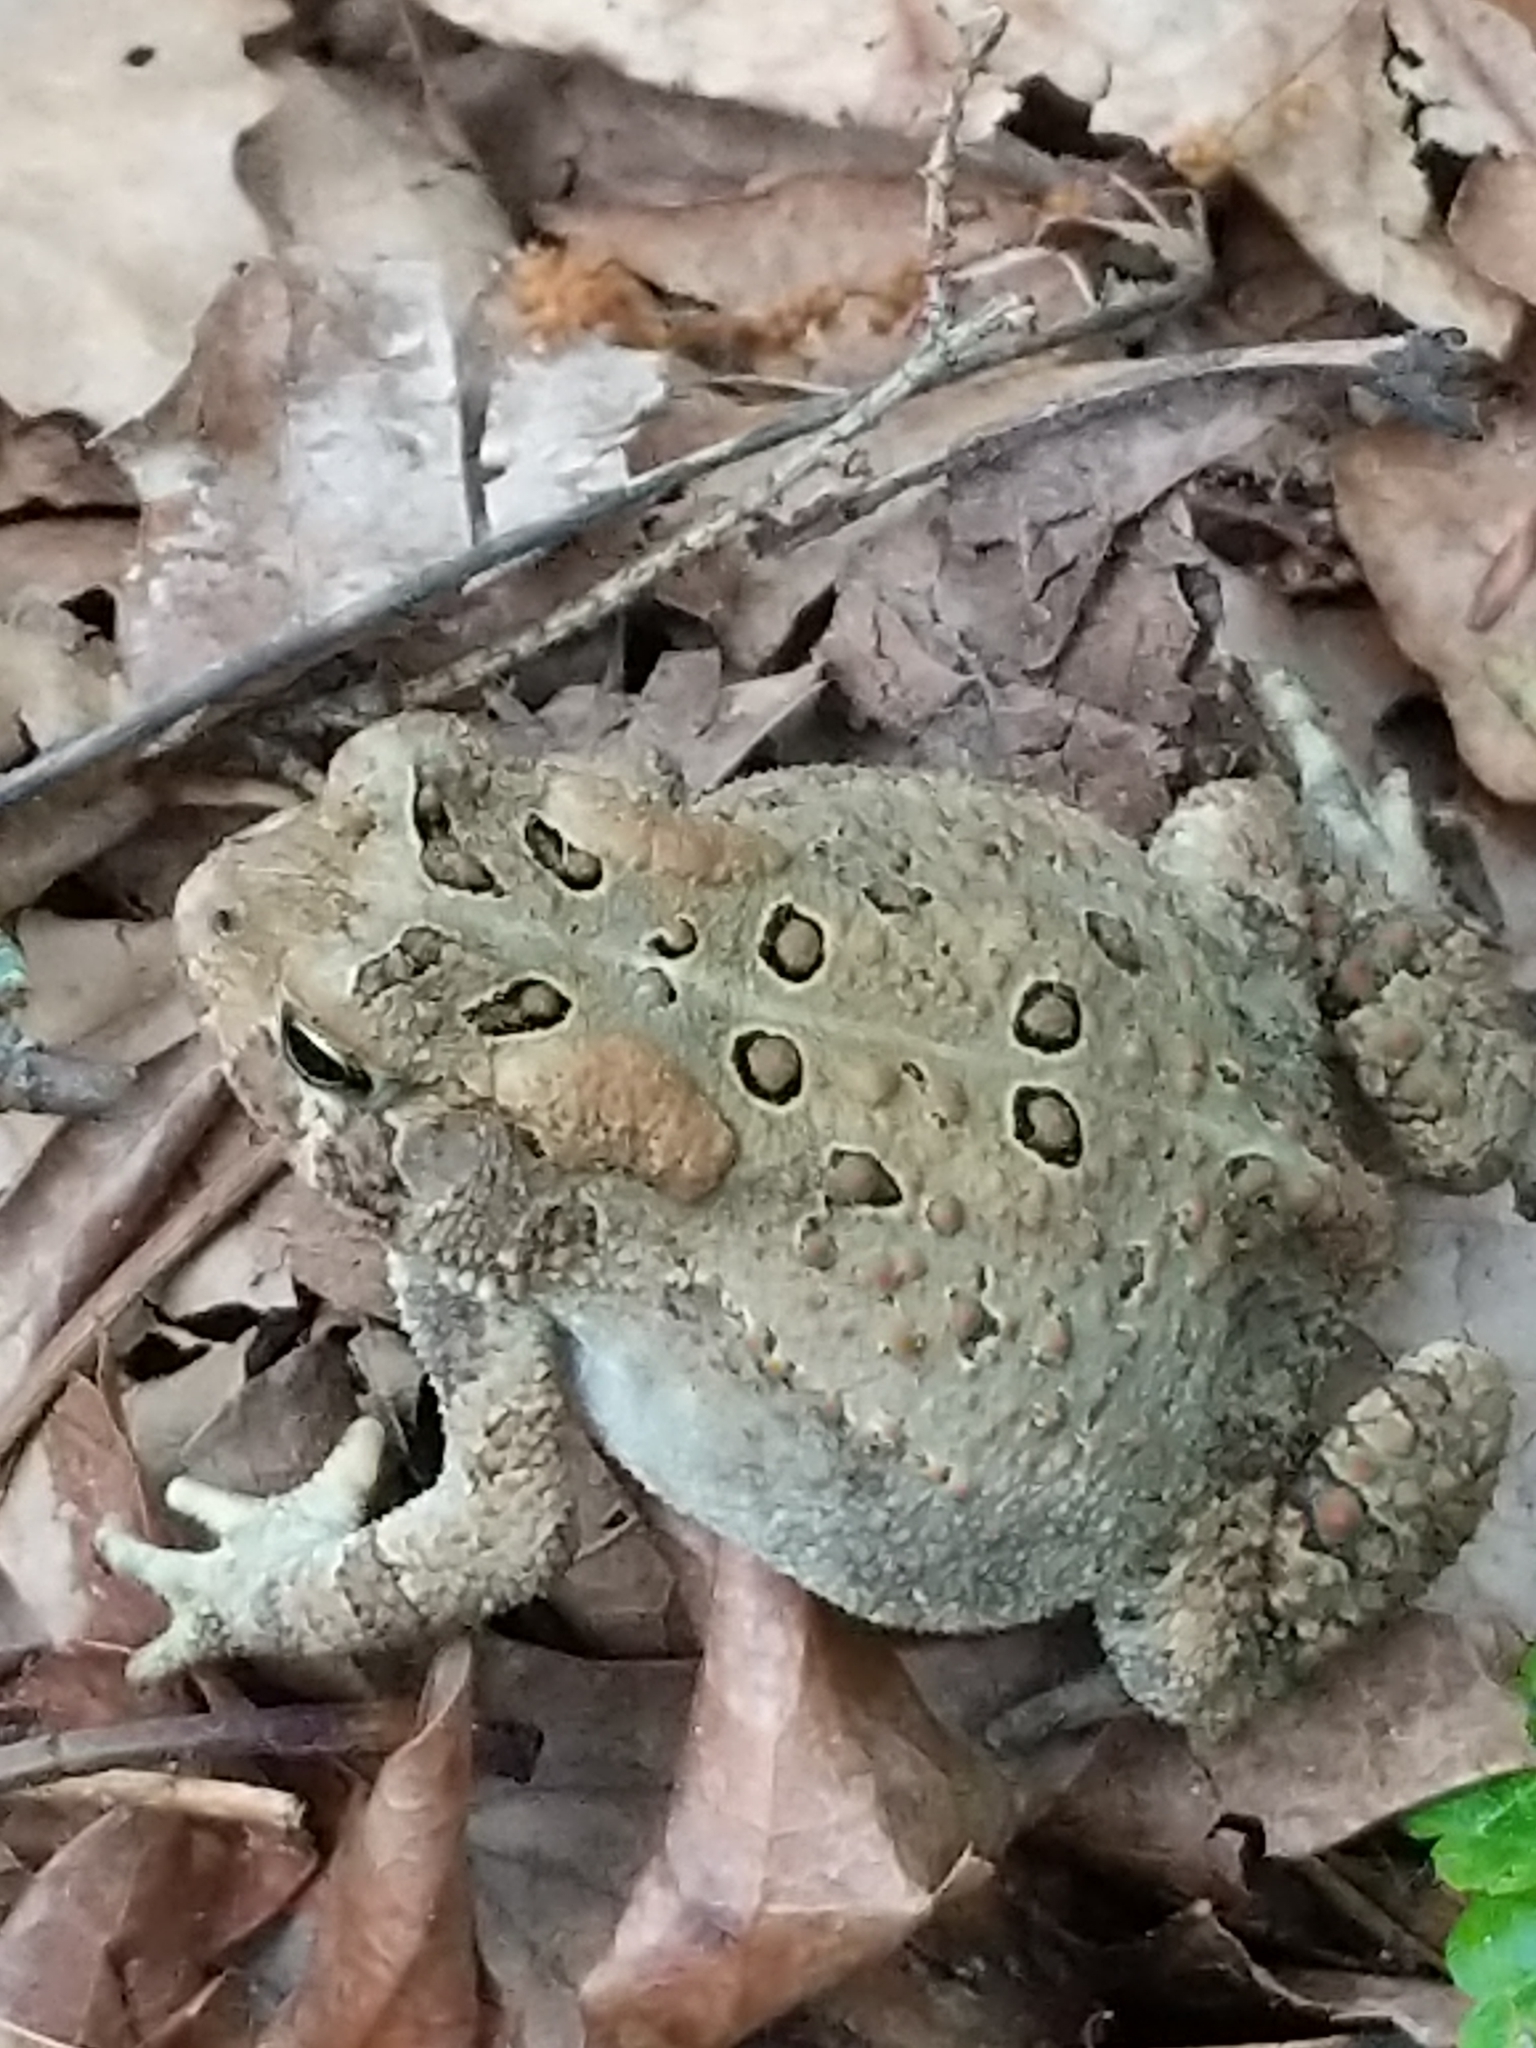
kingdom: Animalia
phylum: Chordata
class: Amphibia
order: Anura
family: Bufonidae
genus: Anaxyrus
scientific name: Anaxyrus americanus
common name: American toad
